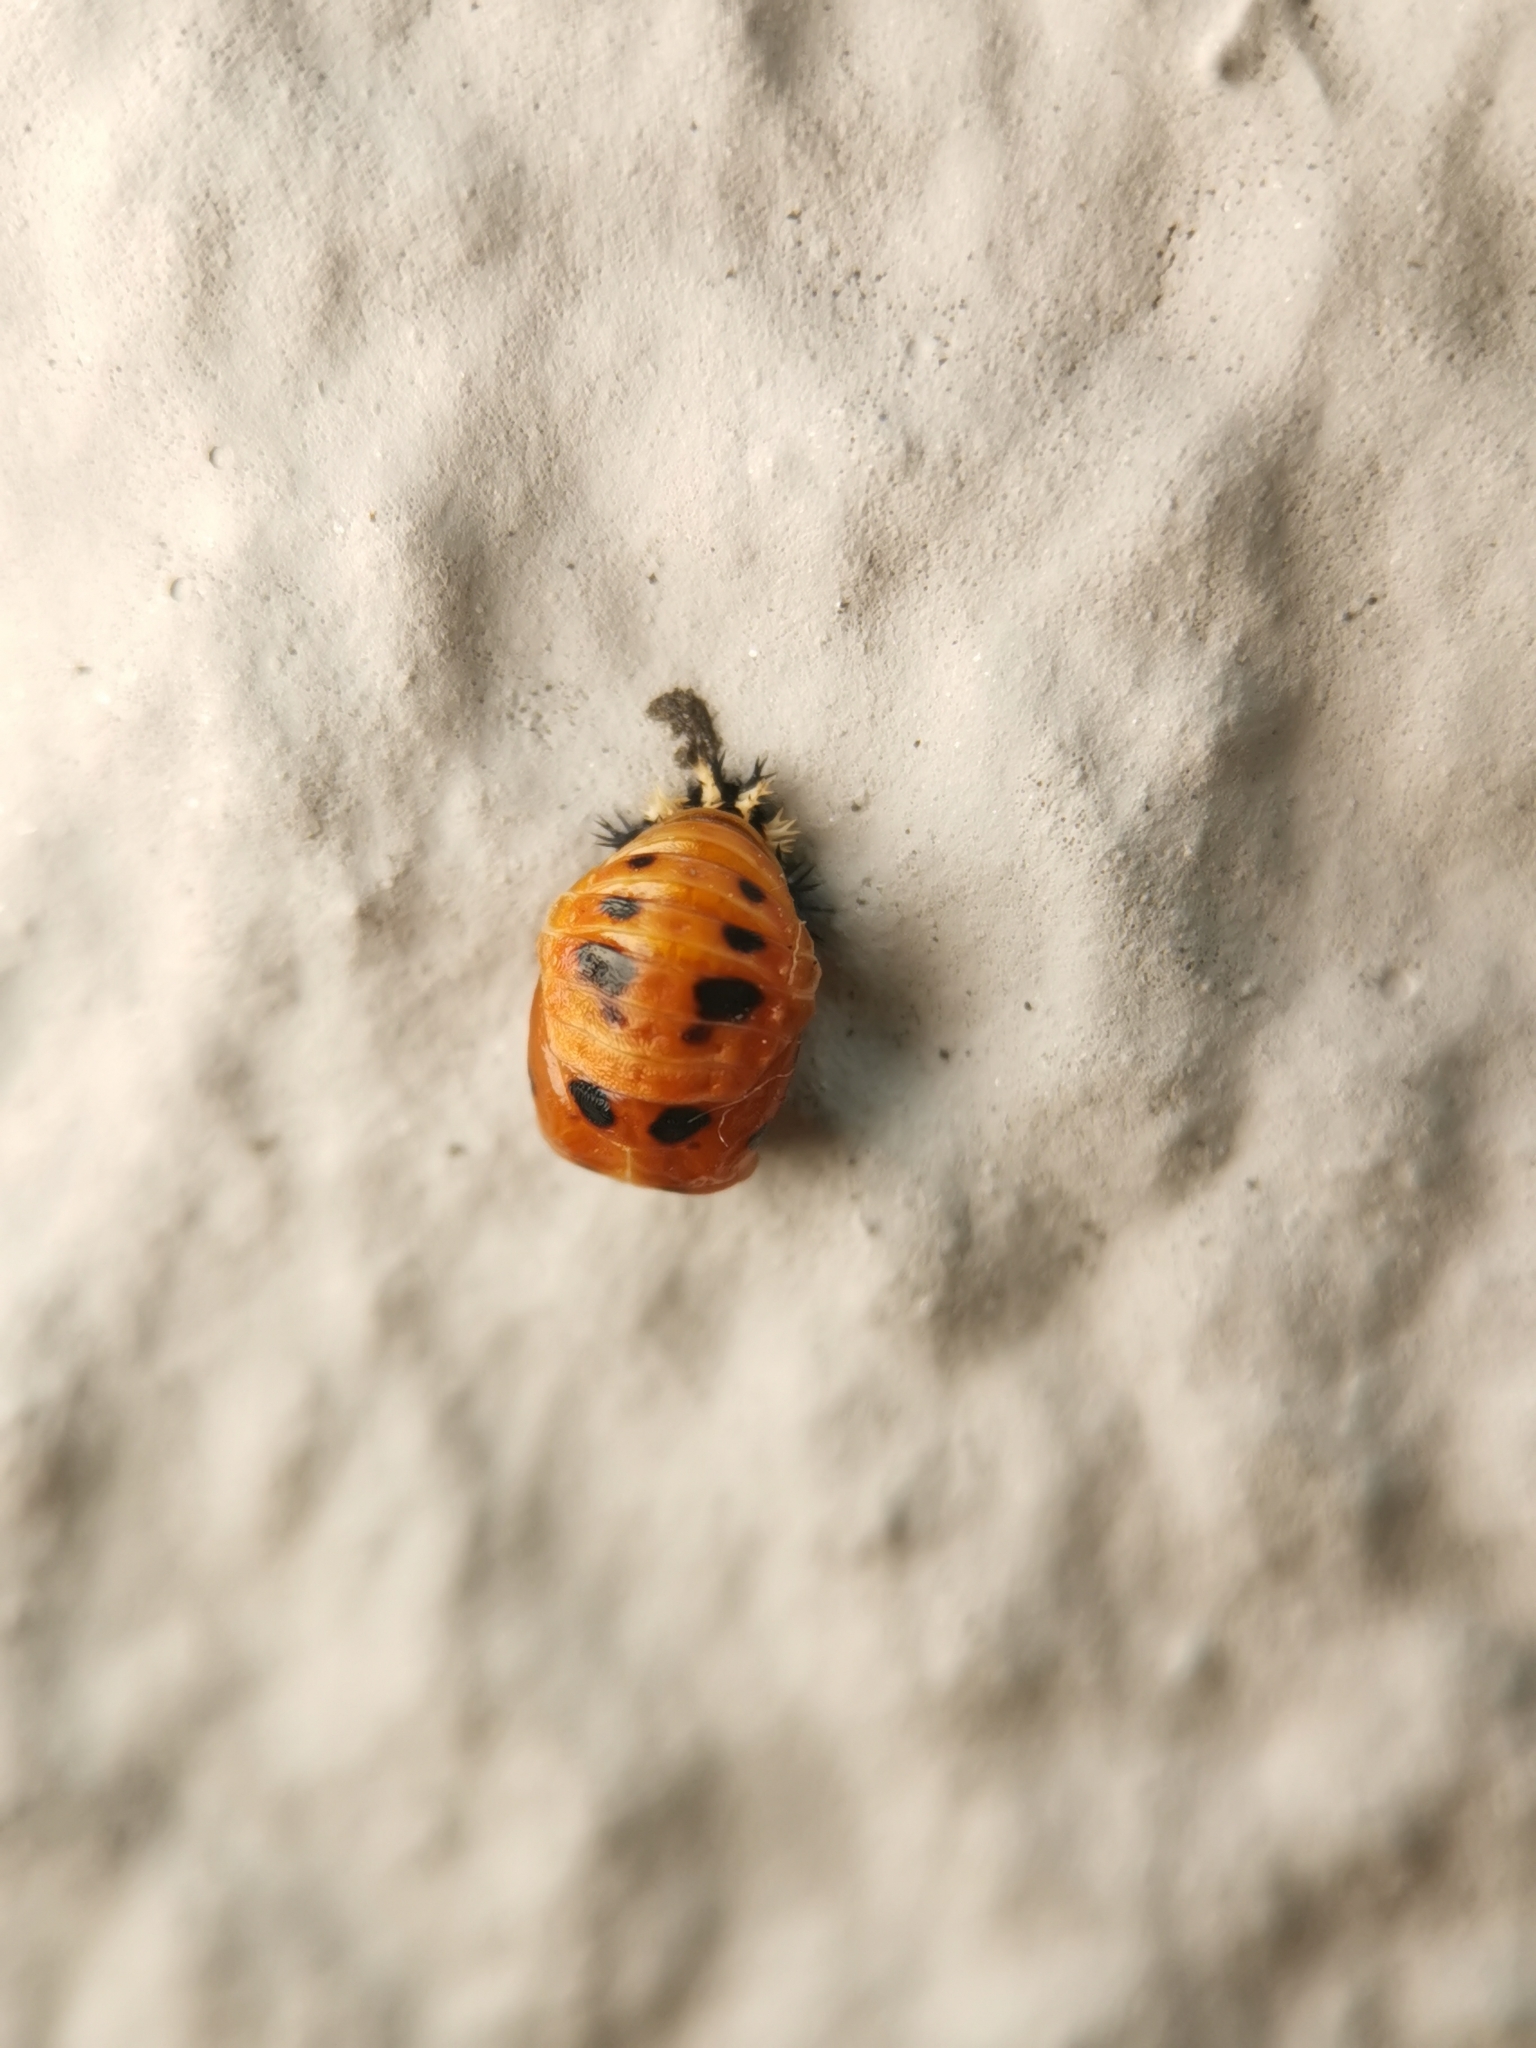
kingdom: Animalia
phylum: Arthropoda
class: Insecta
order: Coleoptera
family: Coccinellidae
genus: Harmonia
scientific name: Harmonia axyridis
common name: Harlequin ladybird
